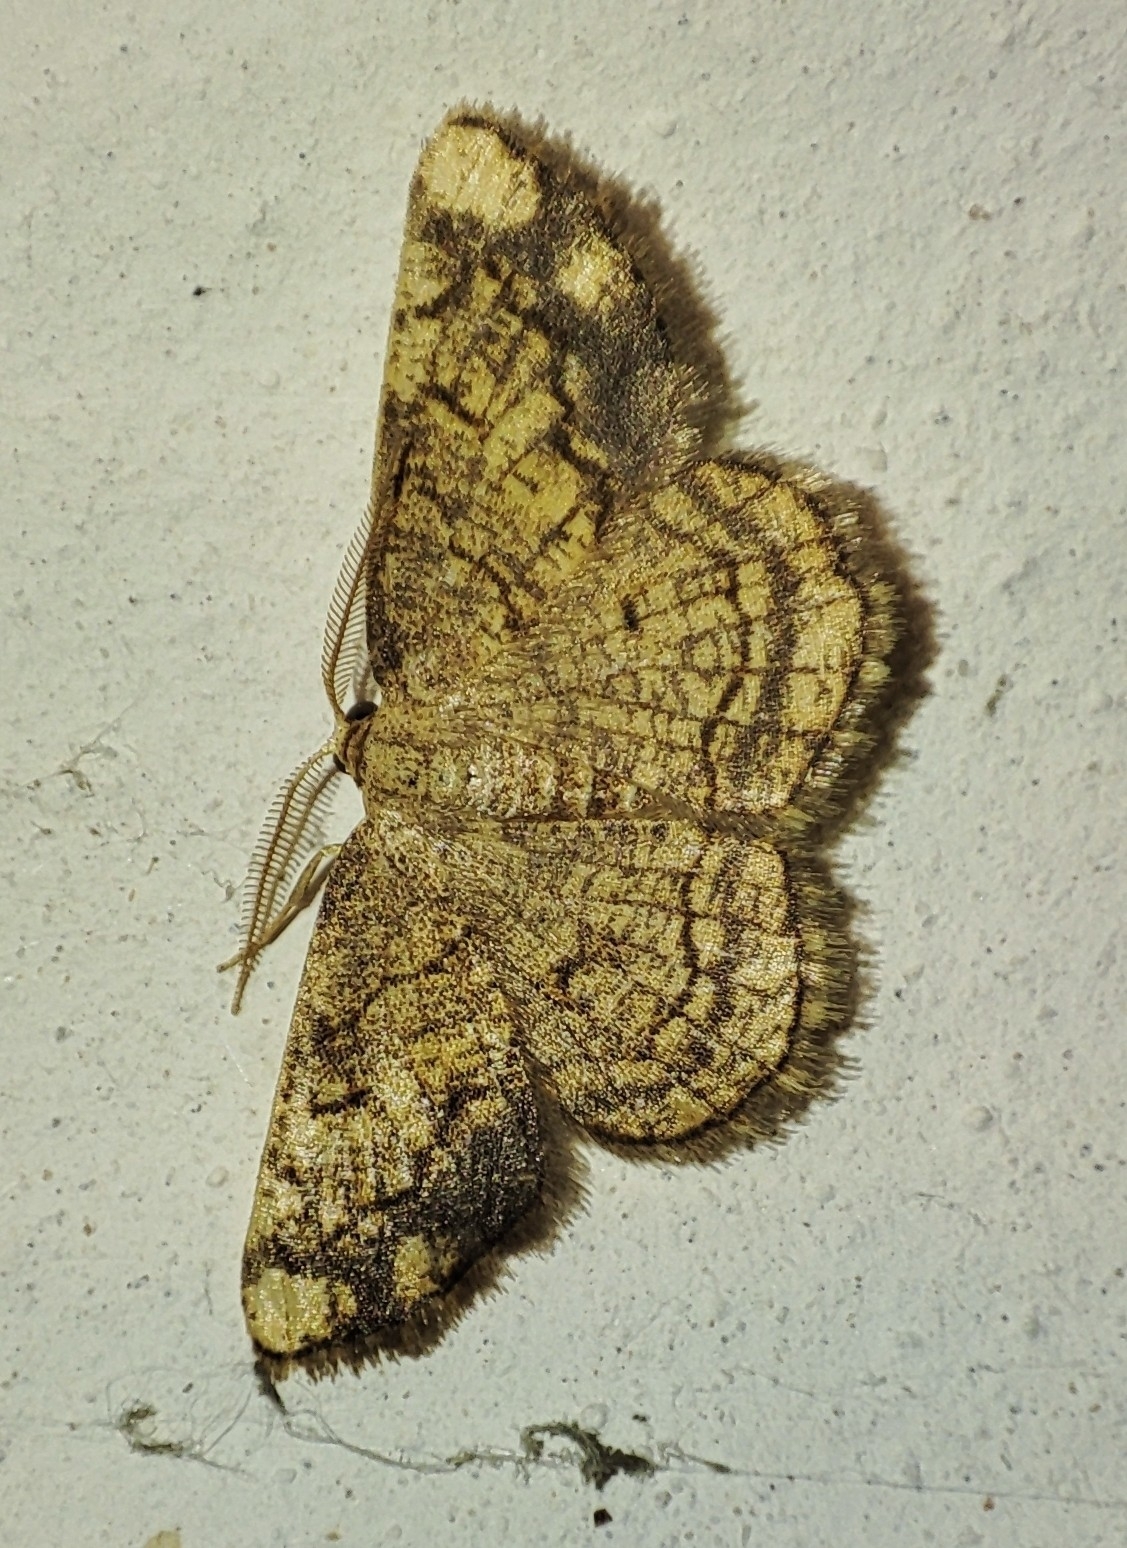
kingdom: Animalia
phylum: Arthropoda
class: Insecta
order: Lepidoptera
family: Geometridae
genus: Stegania
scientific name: Stegania dilectaria
